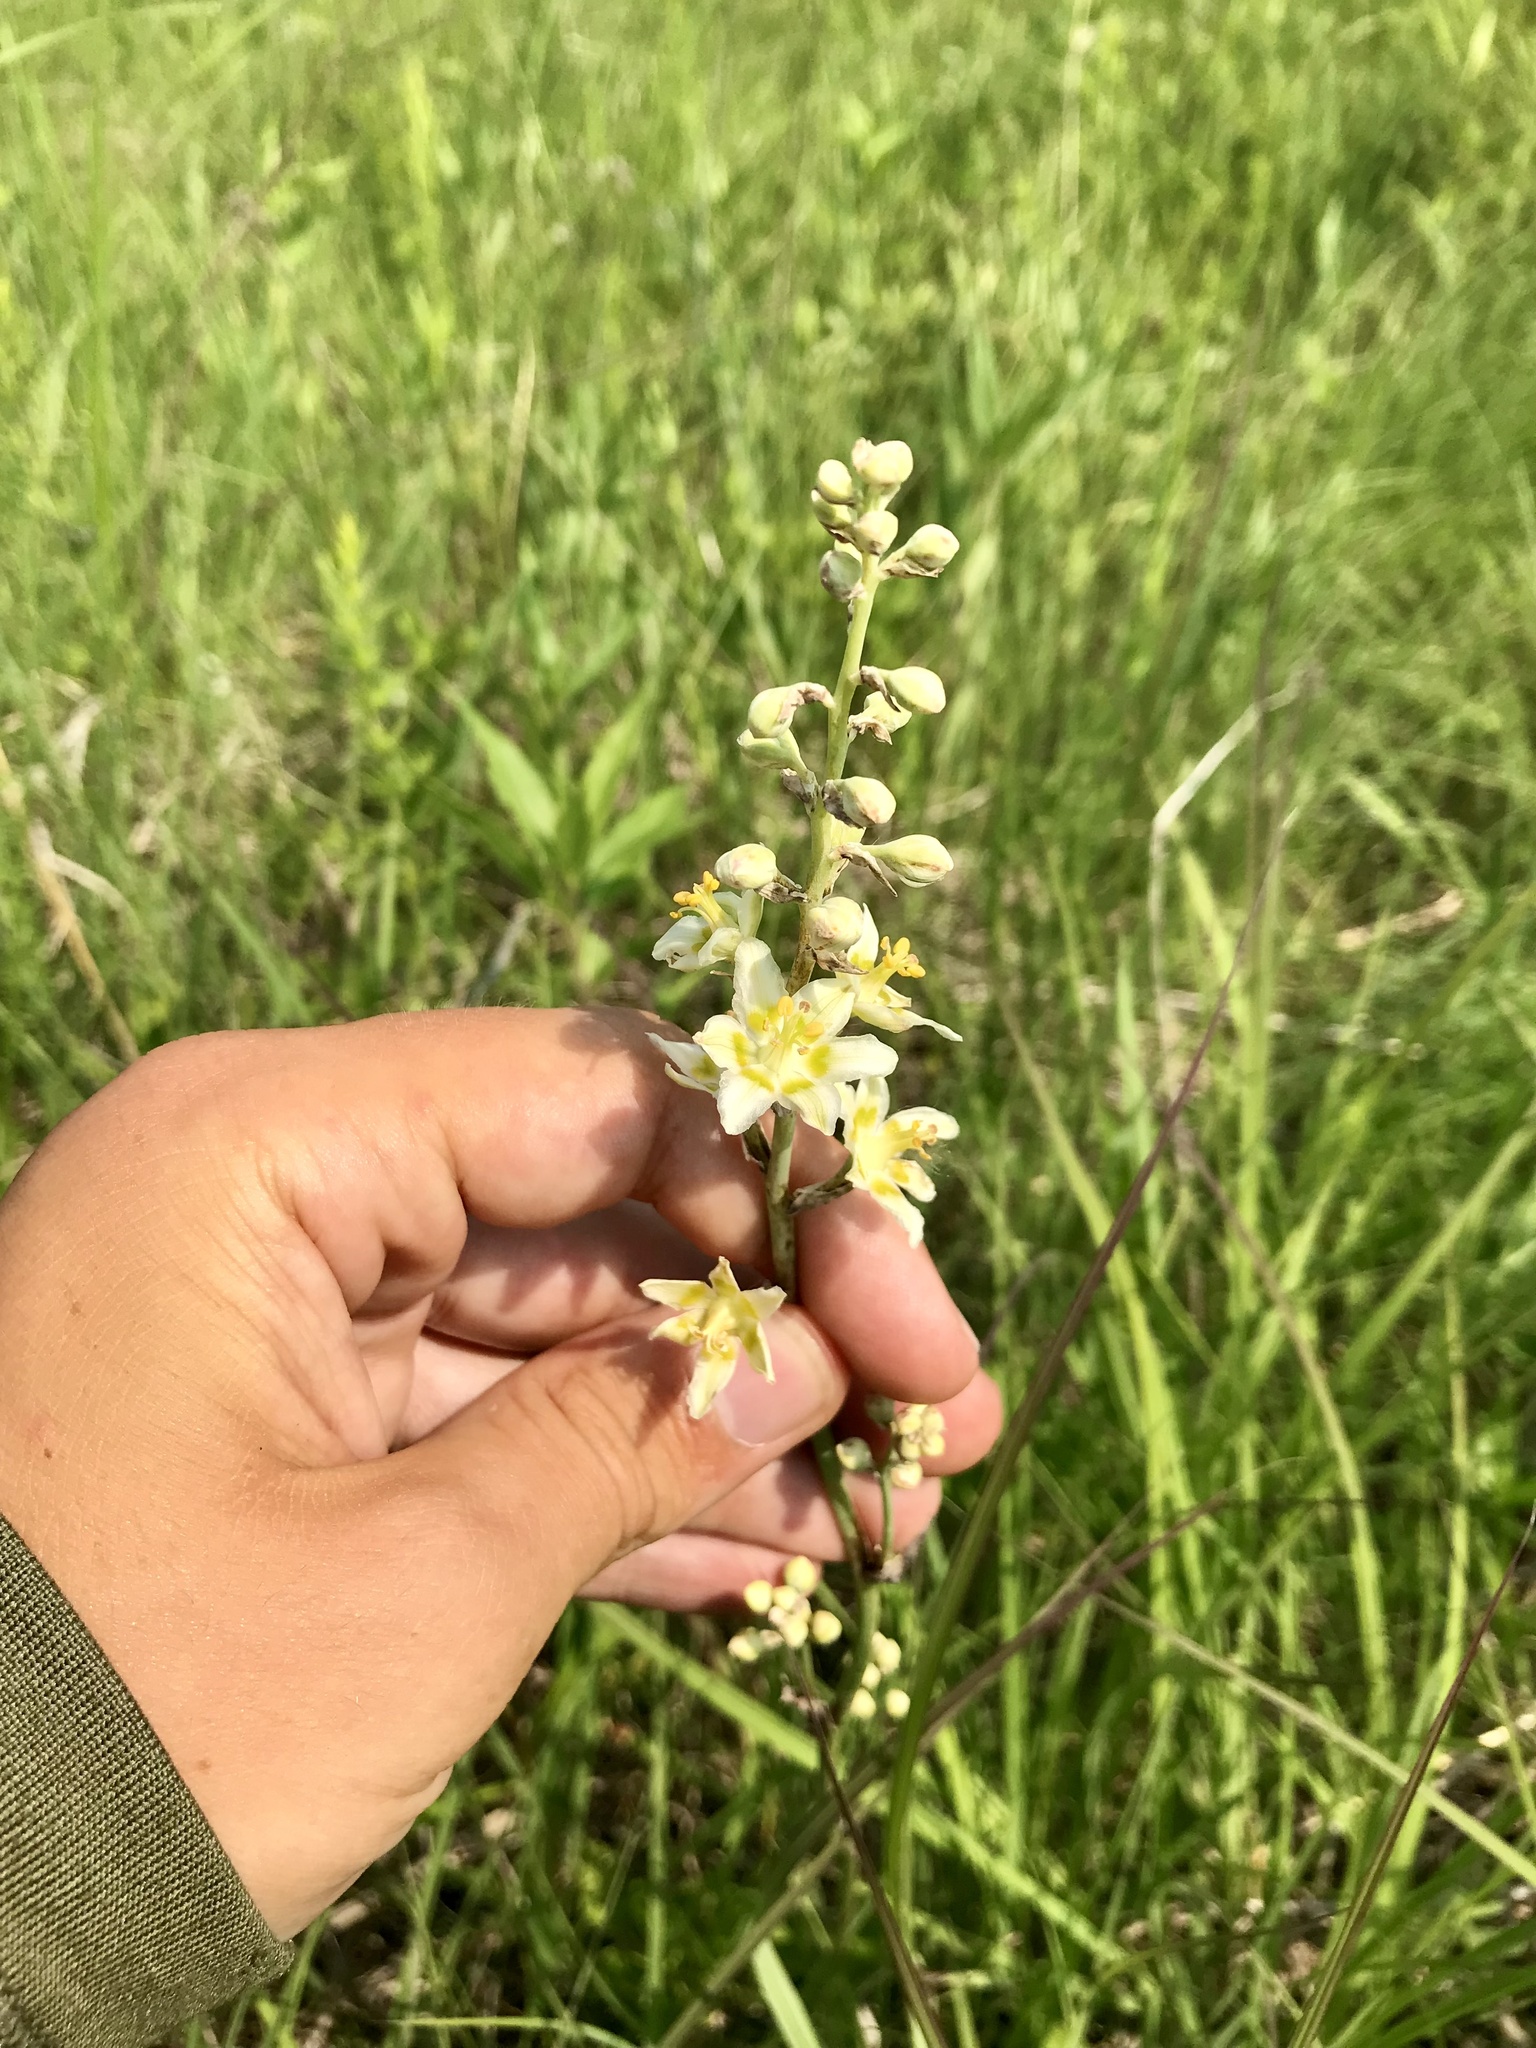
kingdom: Plantae
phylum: Tracheophyta
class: Liliopsida
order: Liliales
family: Melanthiaceae
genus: Anticlea
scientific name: Anticlea elegans
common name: Mountain death camas
